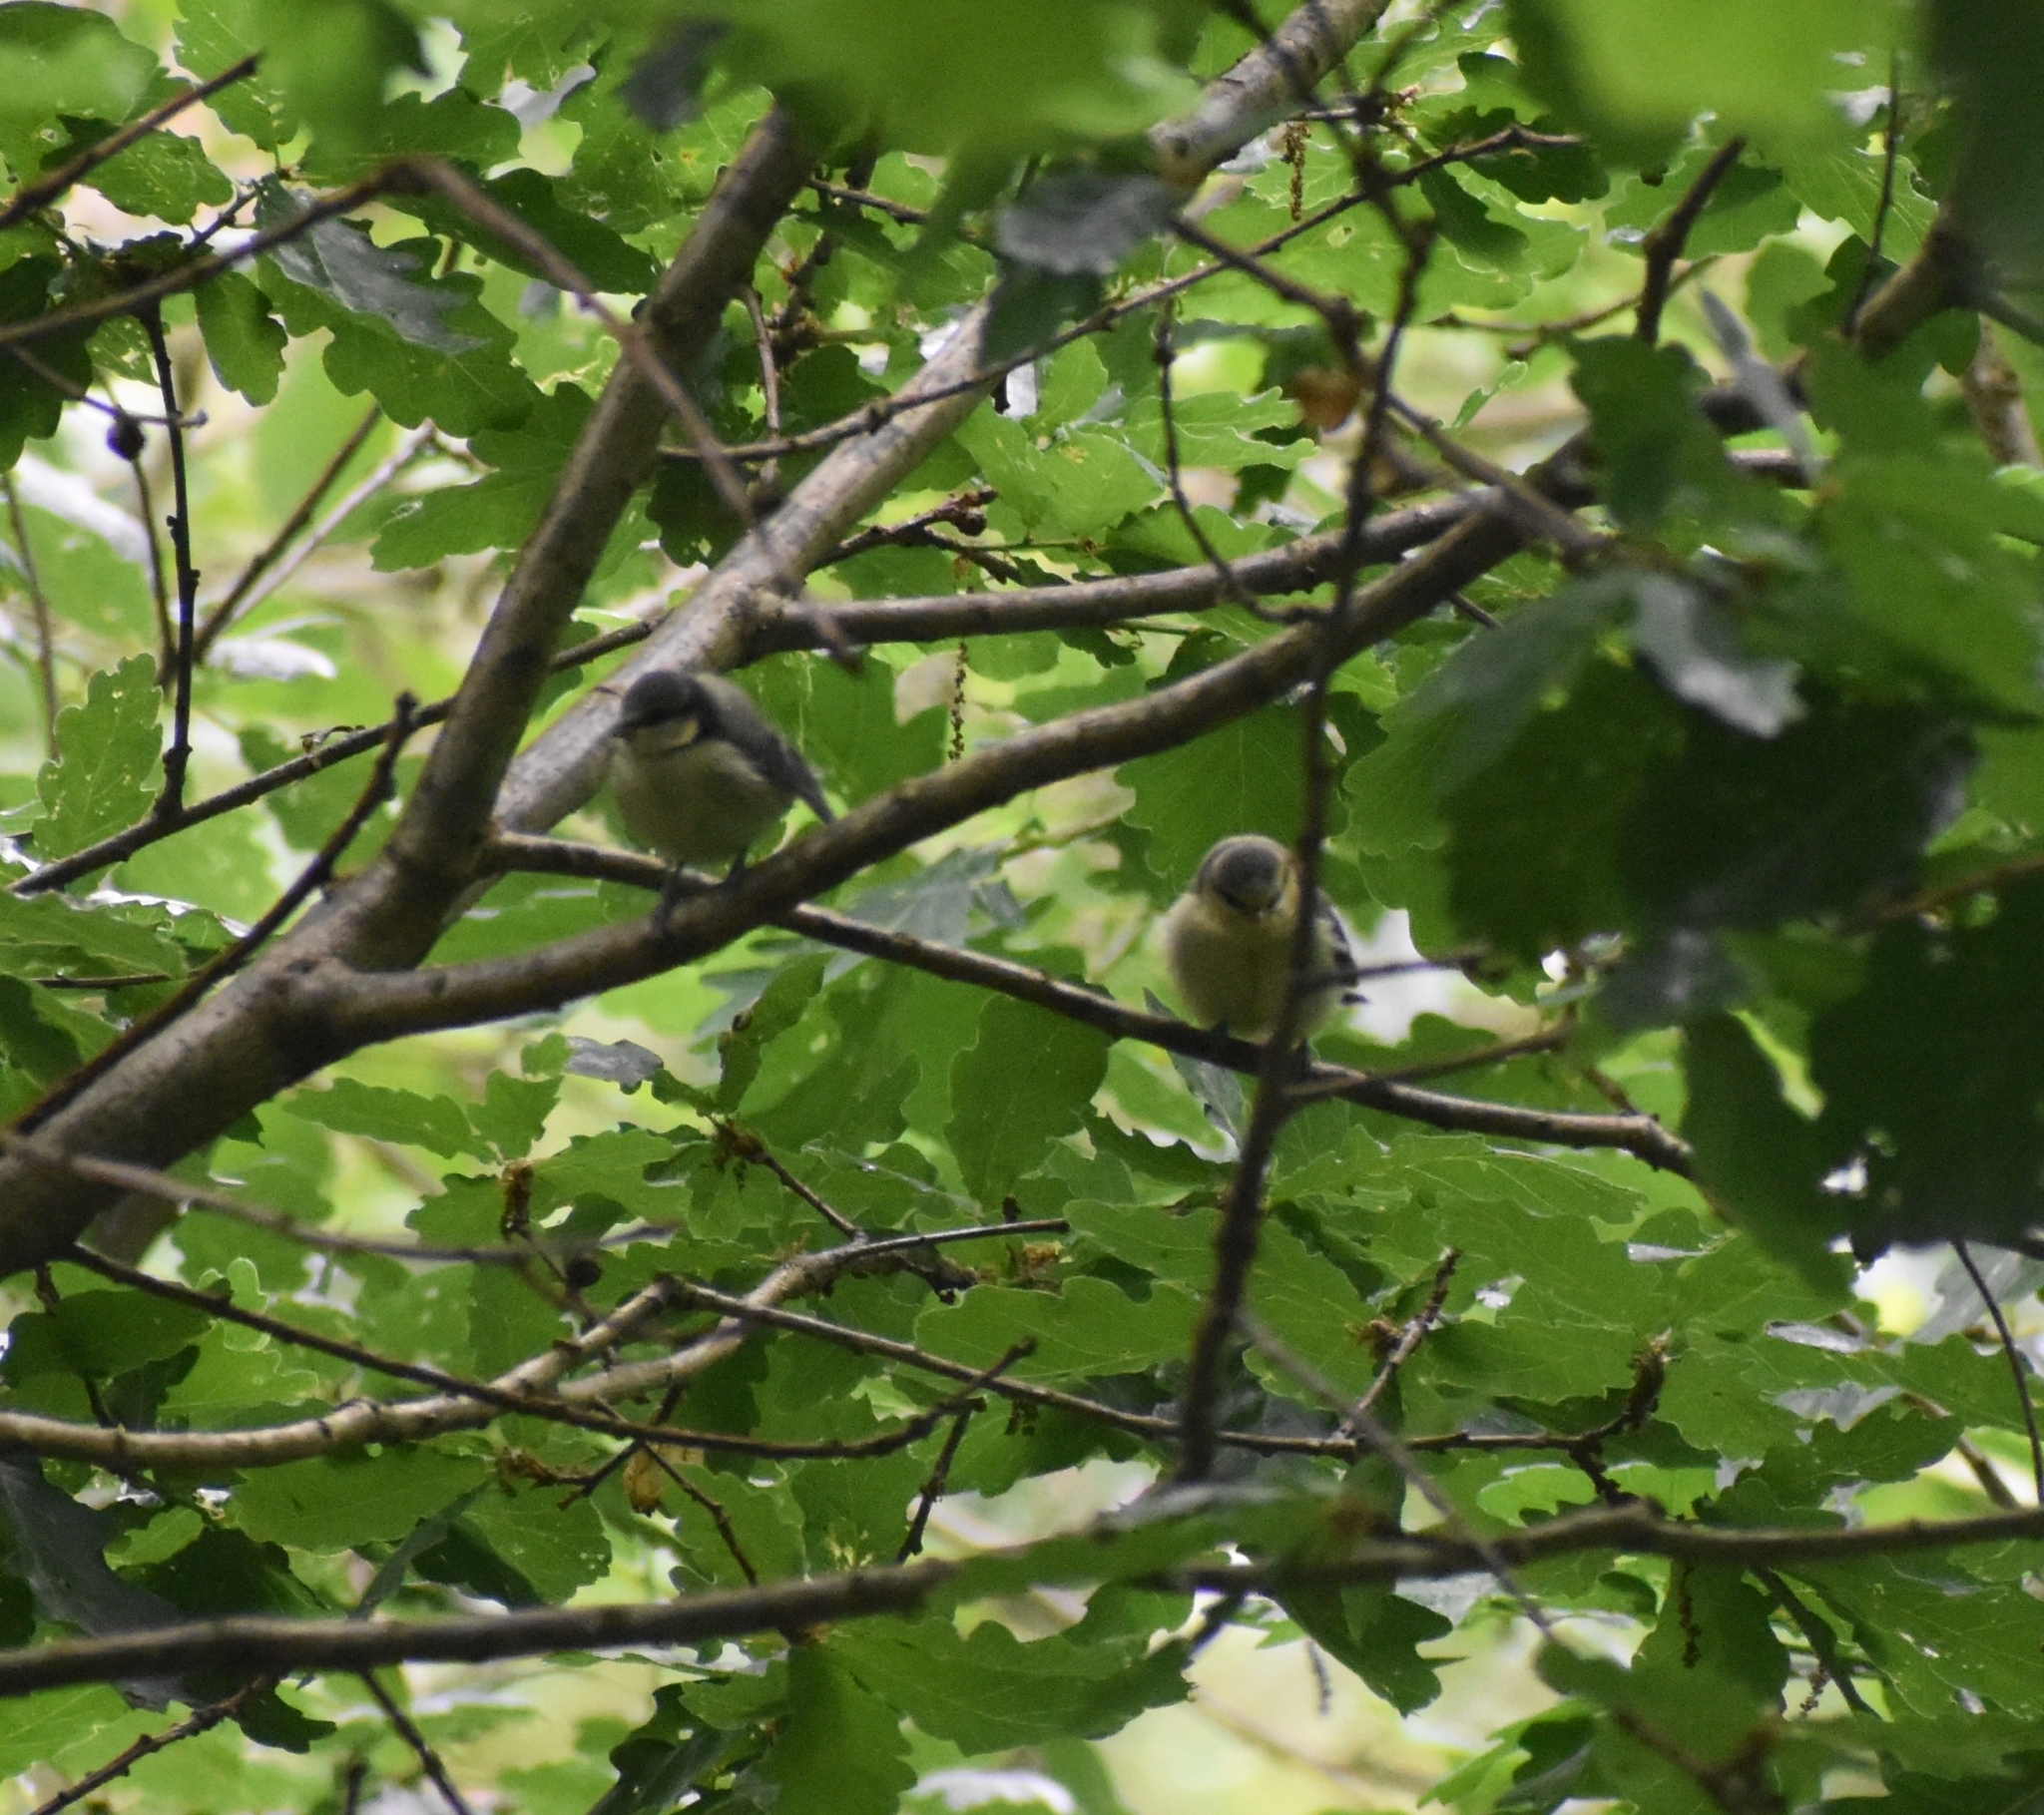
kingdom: Animalia
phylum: Chordata
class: Aves
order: Passeriformes
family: Paridae
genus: Cyanistes
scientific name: Cyanistes caeruleus
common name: Eurasian blue tit
